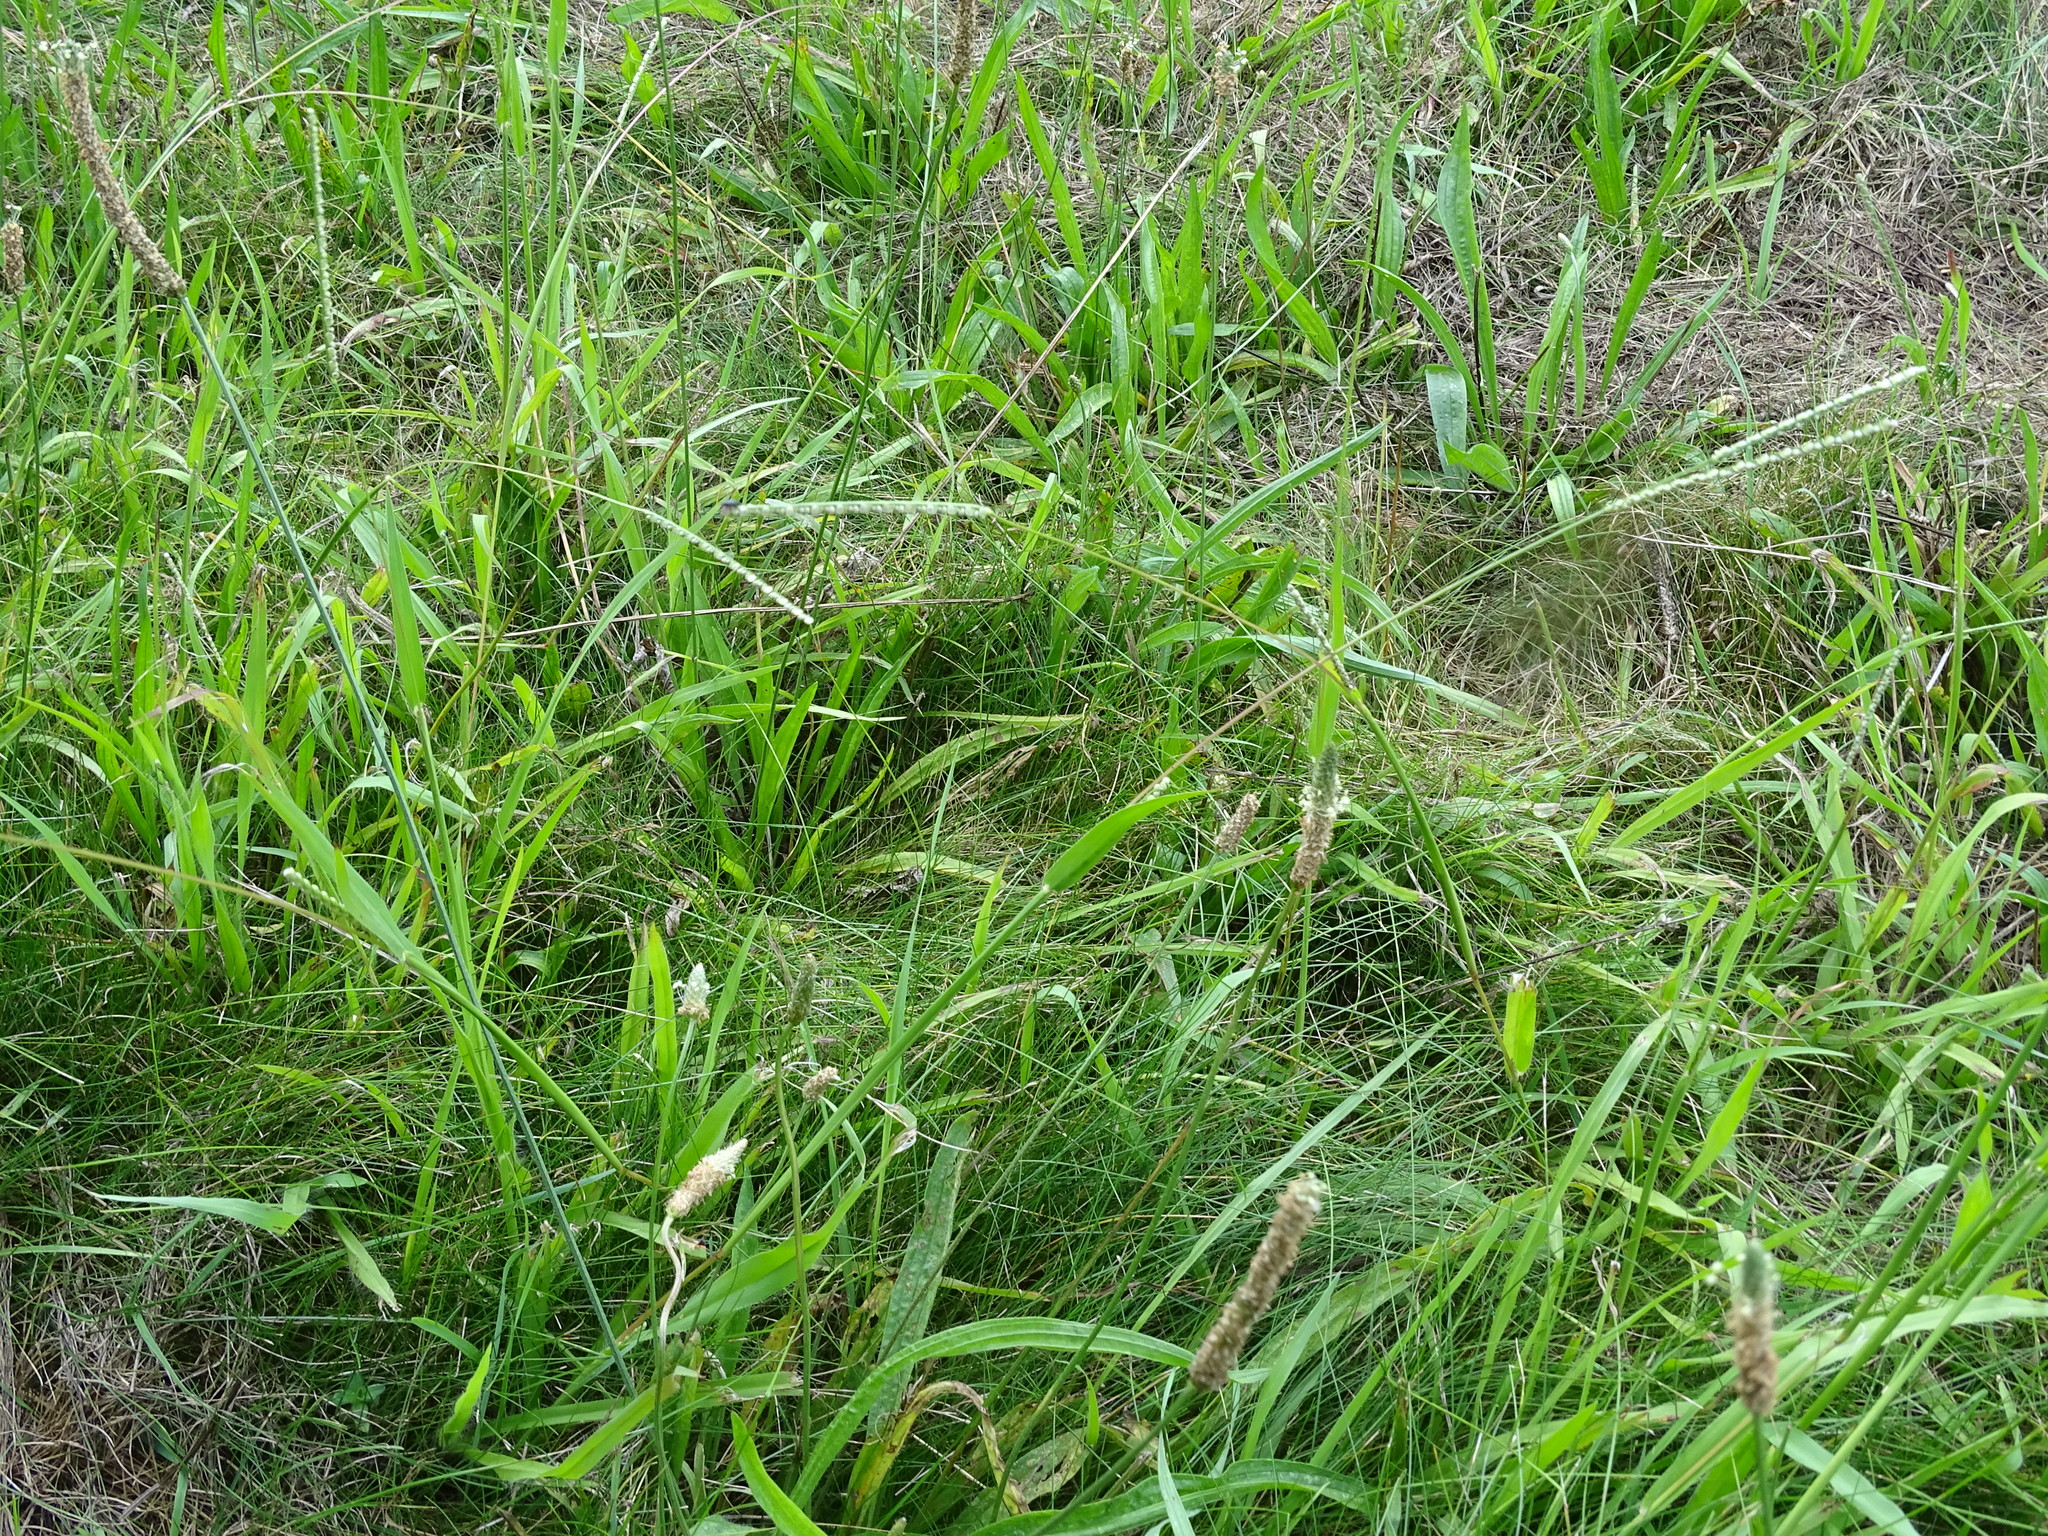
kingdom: Plantae
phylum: Tracheophyta
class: Liliopsida
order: Poales
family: Poaceae
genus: Paspalum
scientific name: Paspalum setaceum
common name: Slender paspalum
